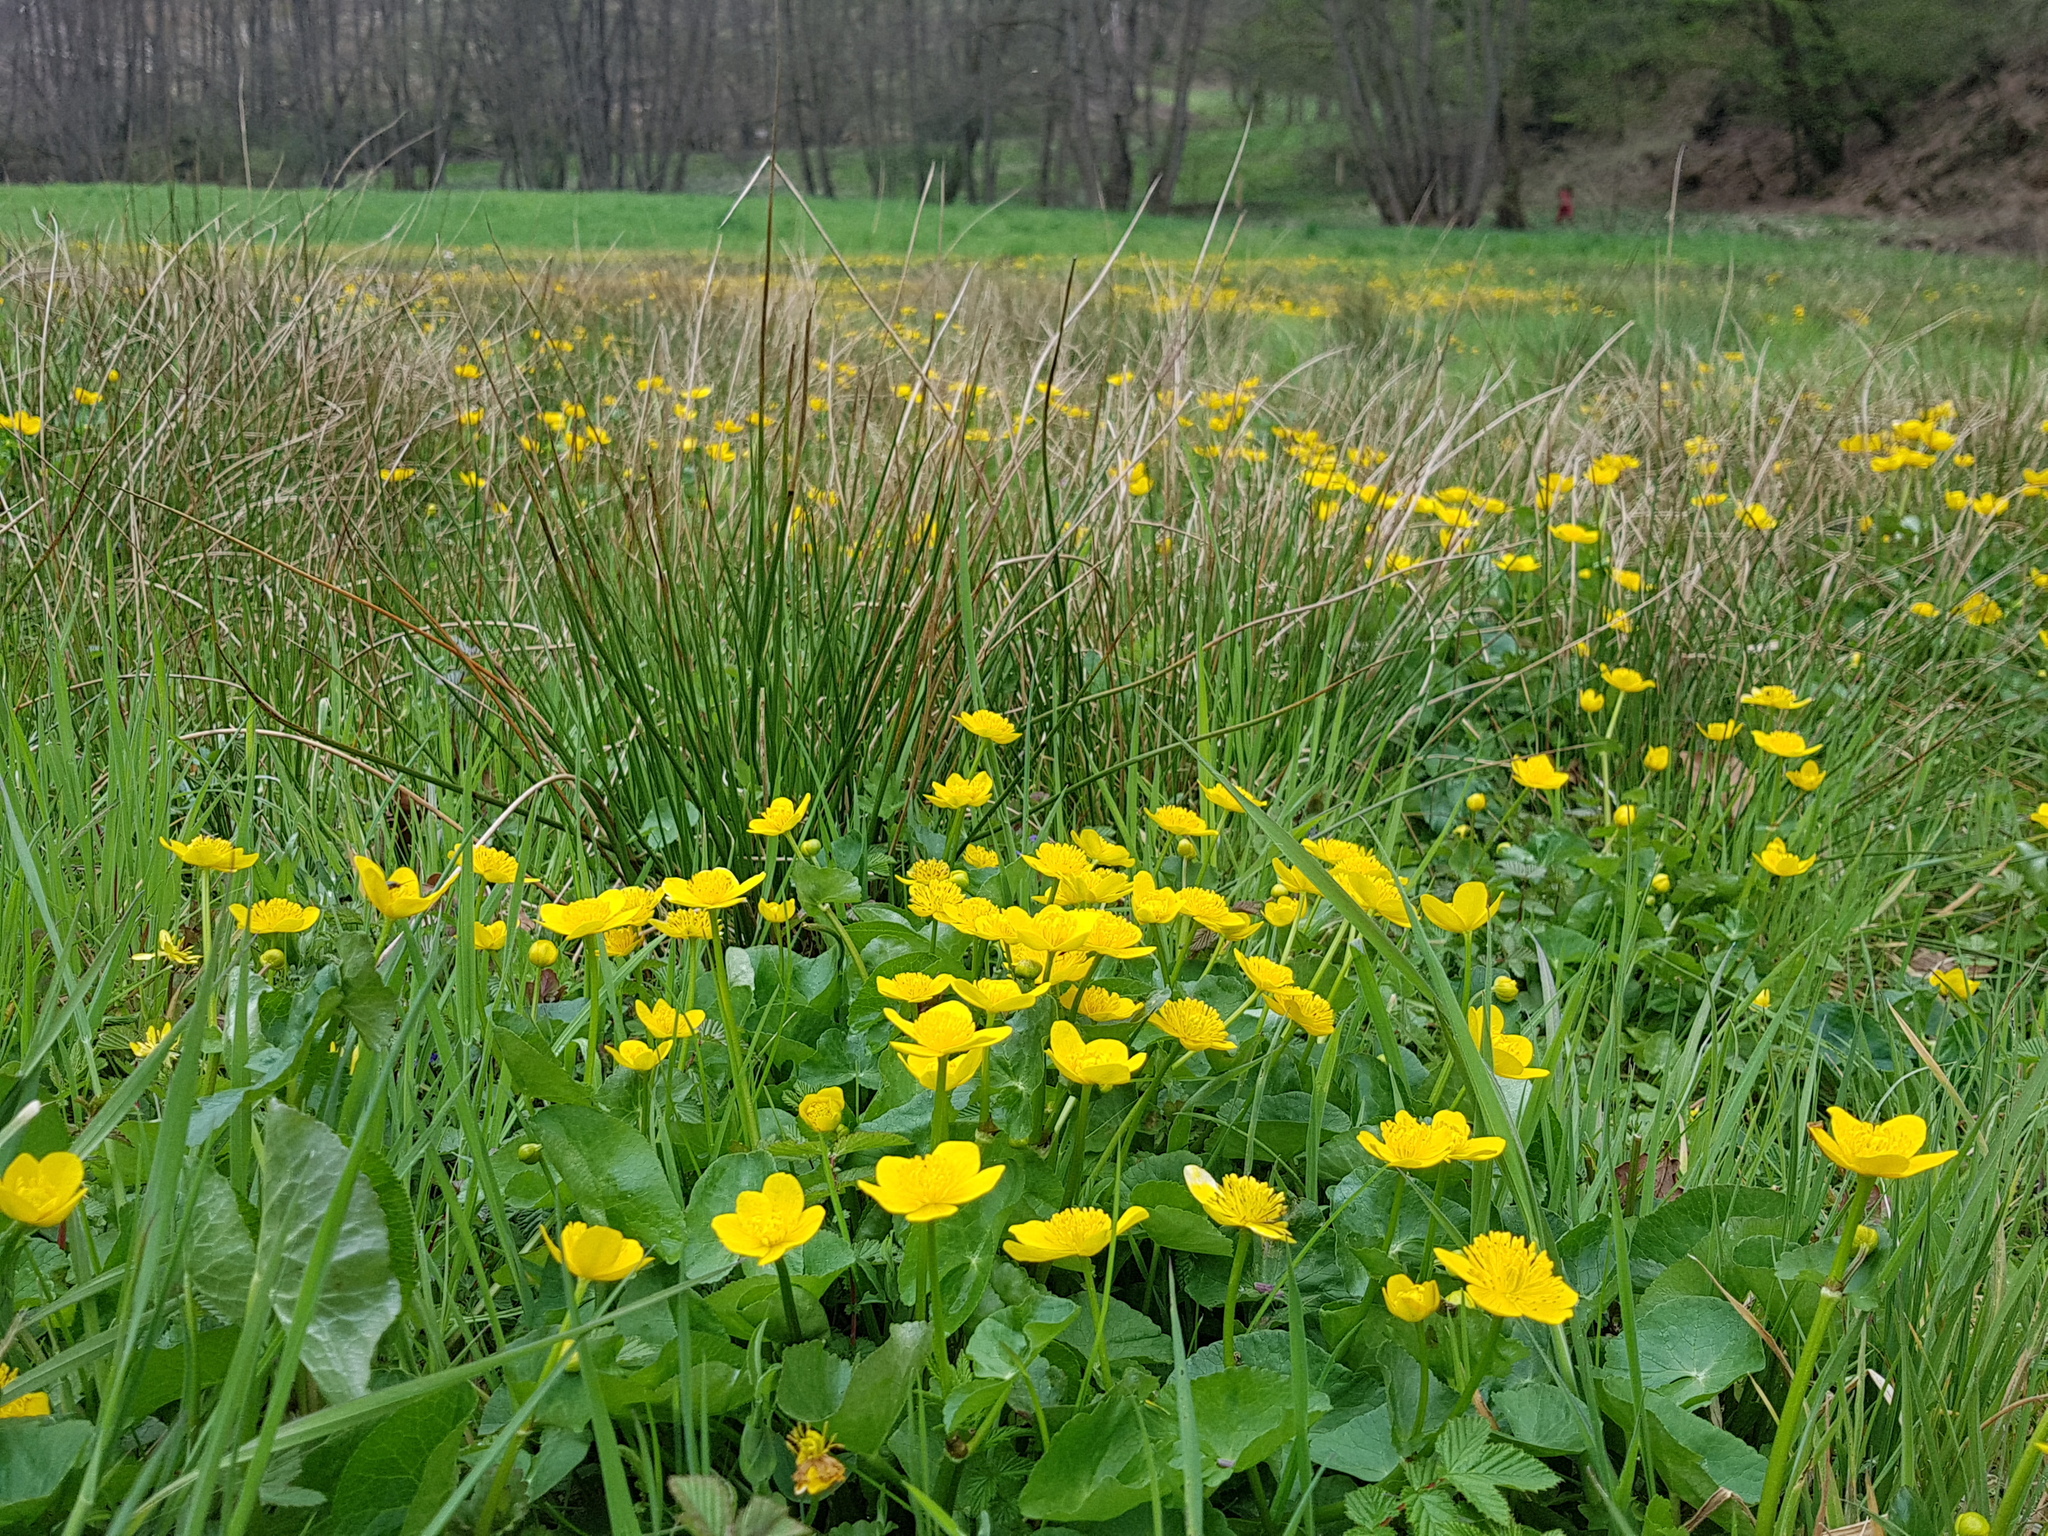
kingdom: Plantae
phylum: Tracheophyta
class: Magnoliopsida
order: Ranunculales
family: Ranunculaceae
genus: Caltha
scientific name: Caltha palustris
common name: Marsh marigold
